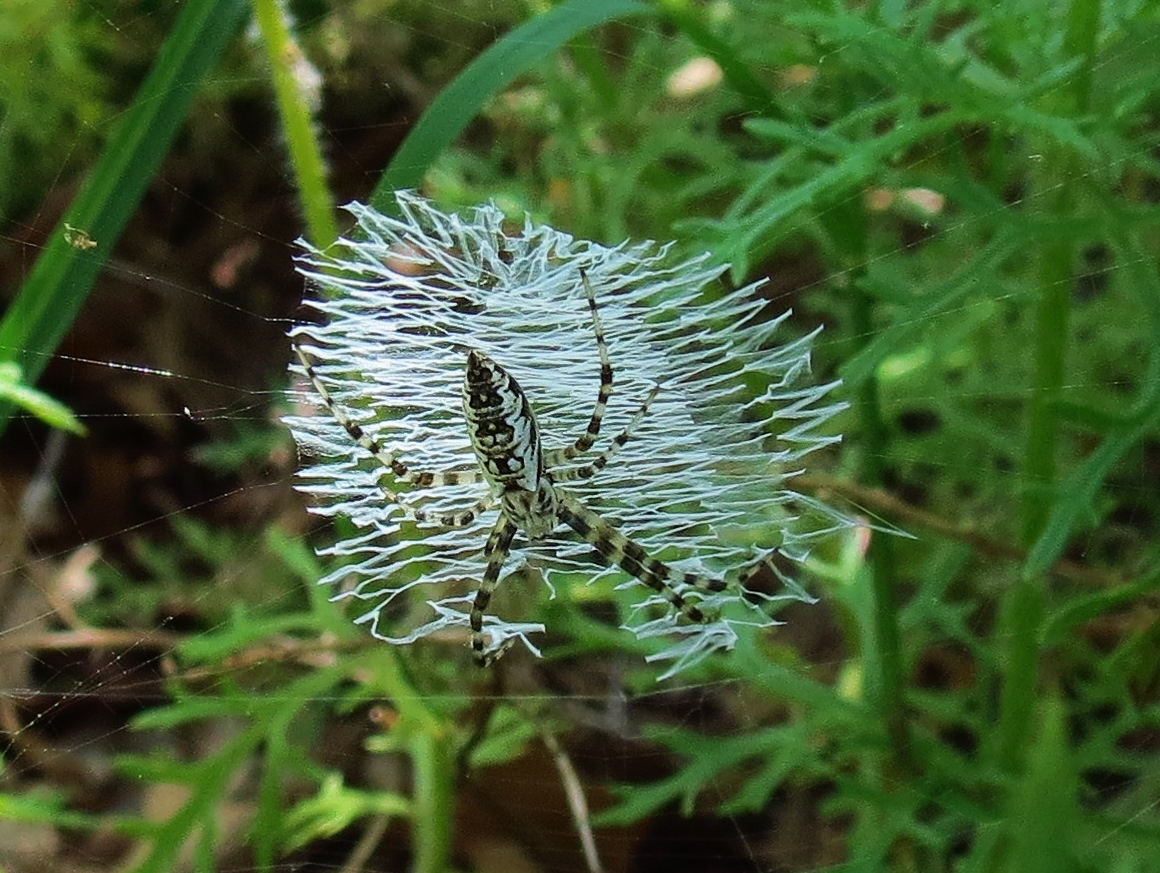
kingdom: Animalia
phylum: Arthropoda
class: Arachnida
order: Araneae
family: Araneidae
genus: Argiope
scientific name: Argiope aurantia
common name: Orb weavers
